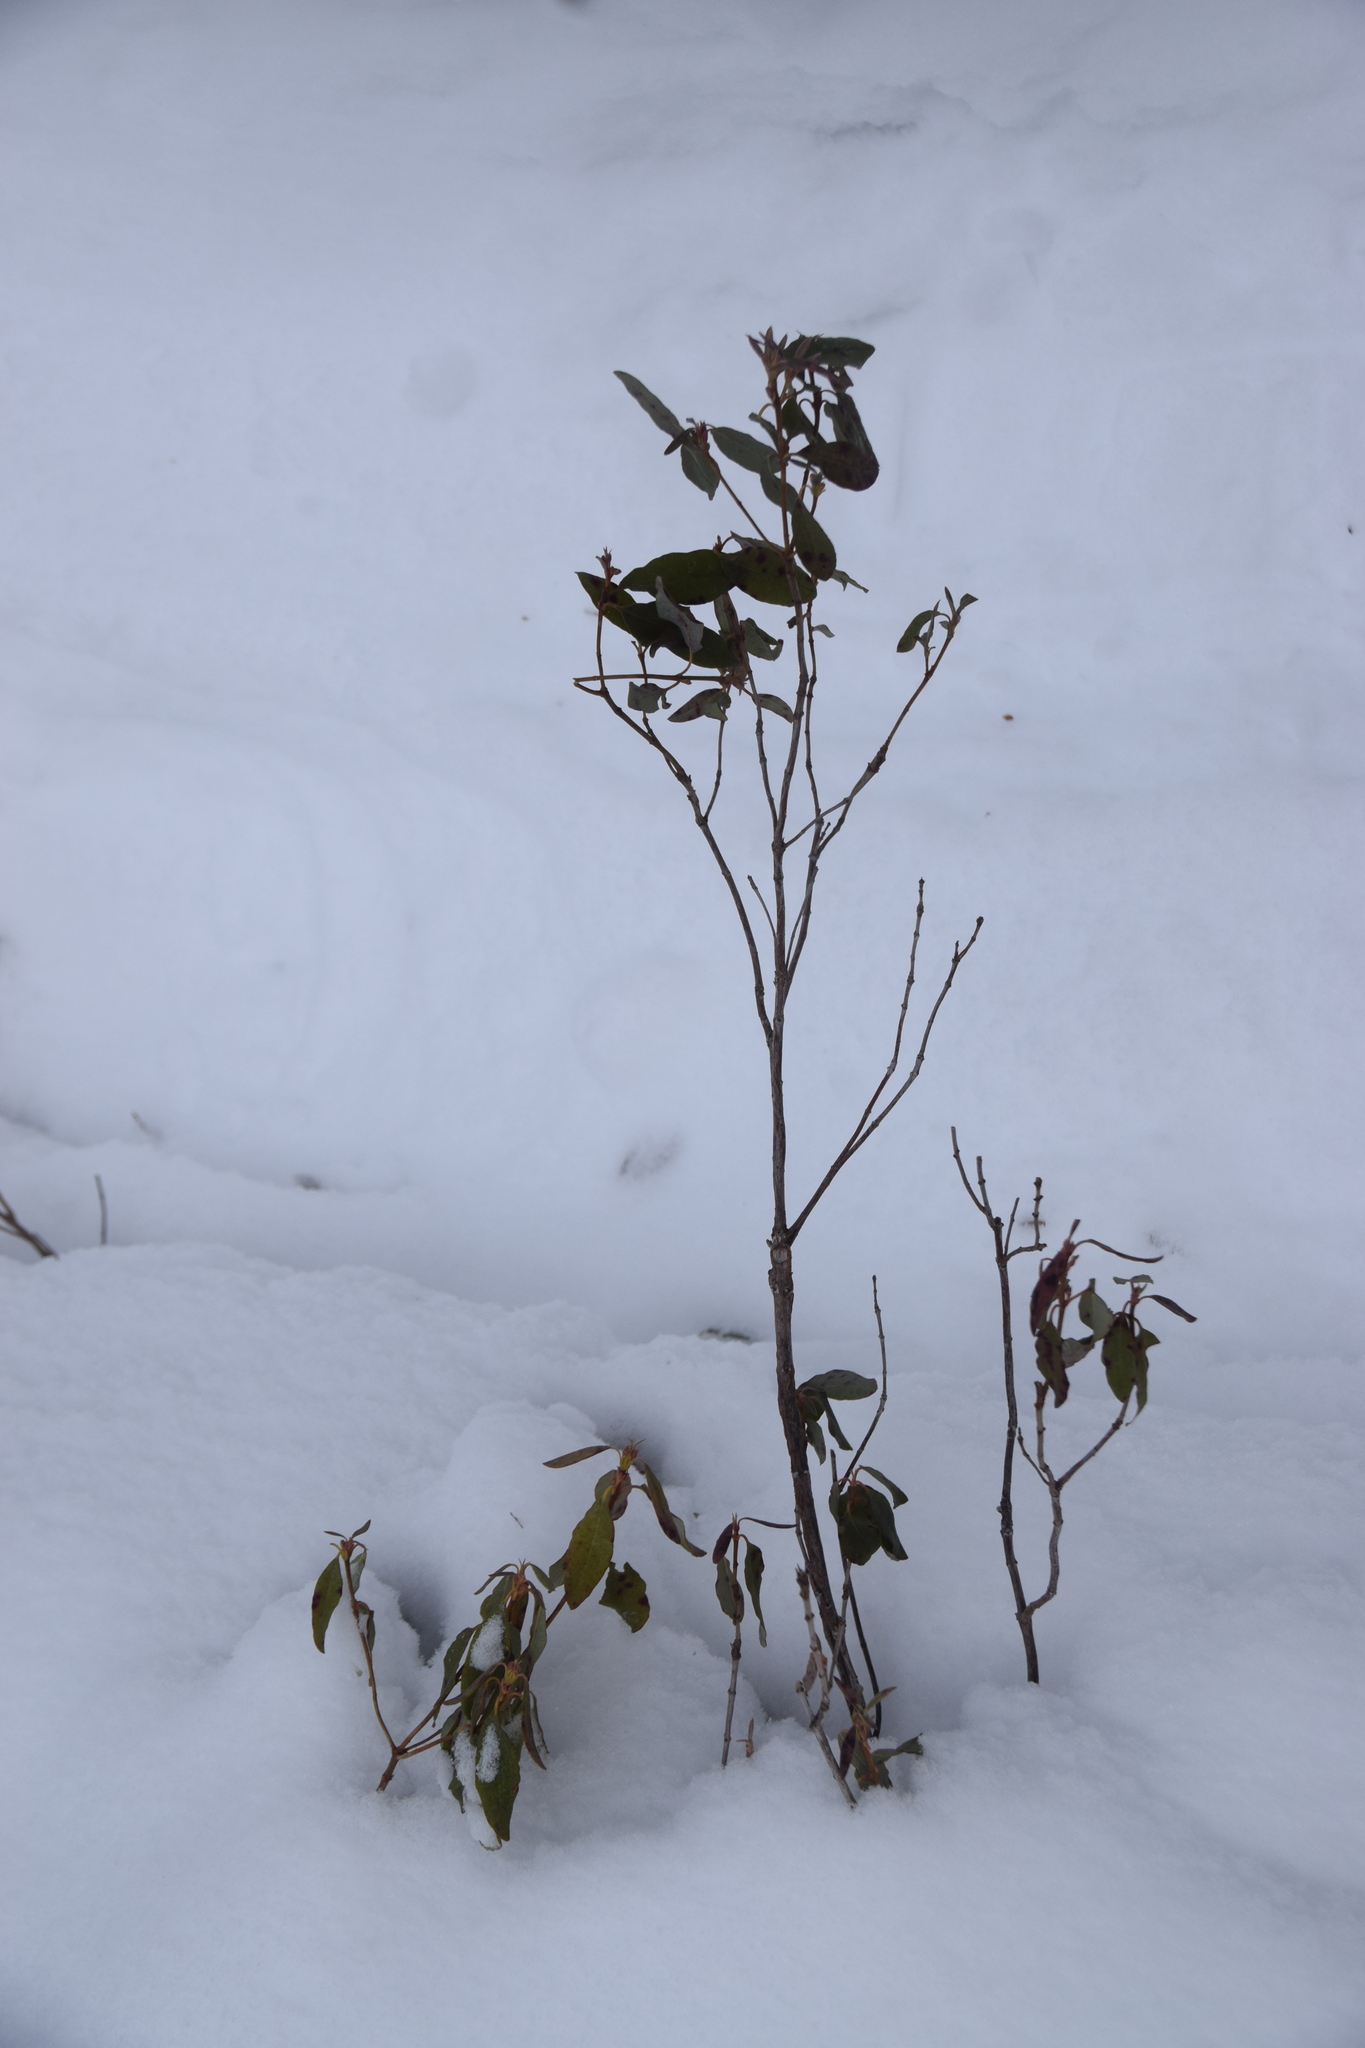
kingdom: Plantae
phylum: Tracheophyta
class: Magnoliopsida
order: Ericales
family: Ericaceae
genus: Kalmia
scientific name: Kalmia angustifolia
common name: Sheep-laurel
